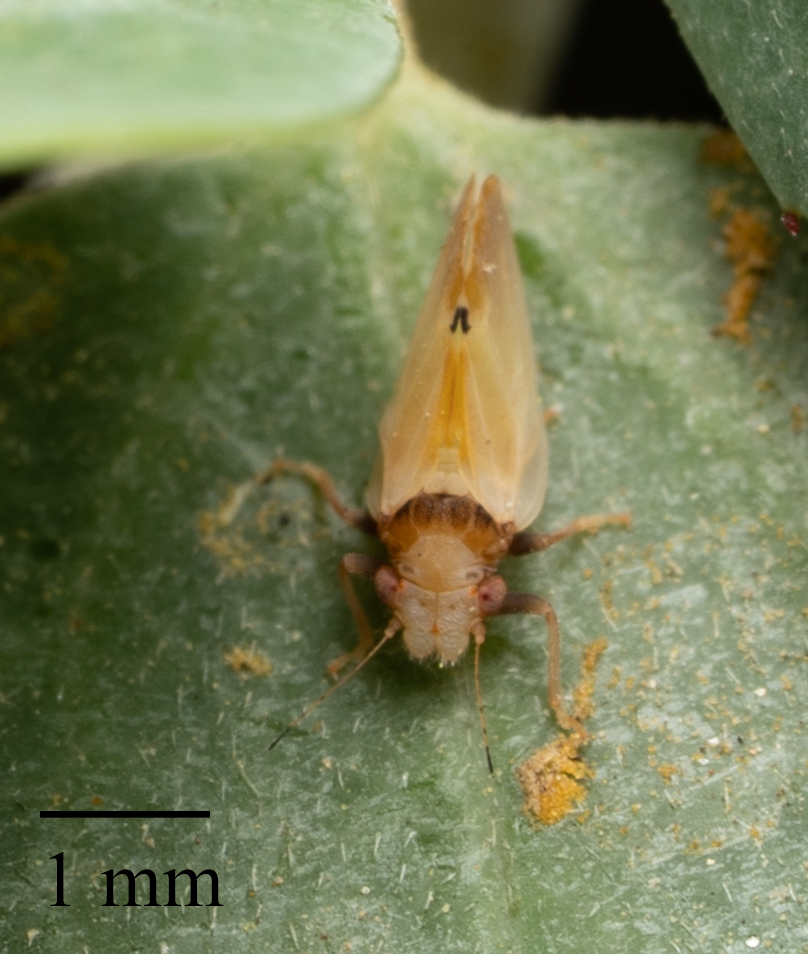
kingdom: Animalia
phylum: Arthropoda
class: Insecta
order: Hemiptera
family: Psyllidae
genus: Nyctiphalerus
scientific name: Nyctiphalerus vermiculosus
